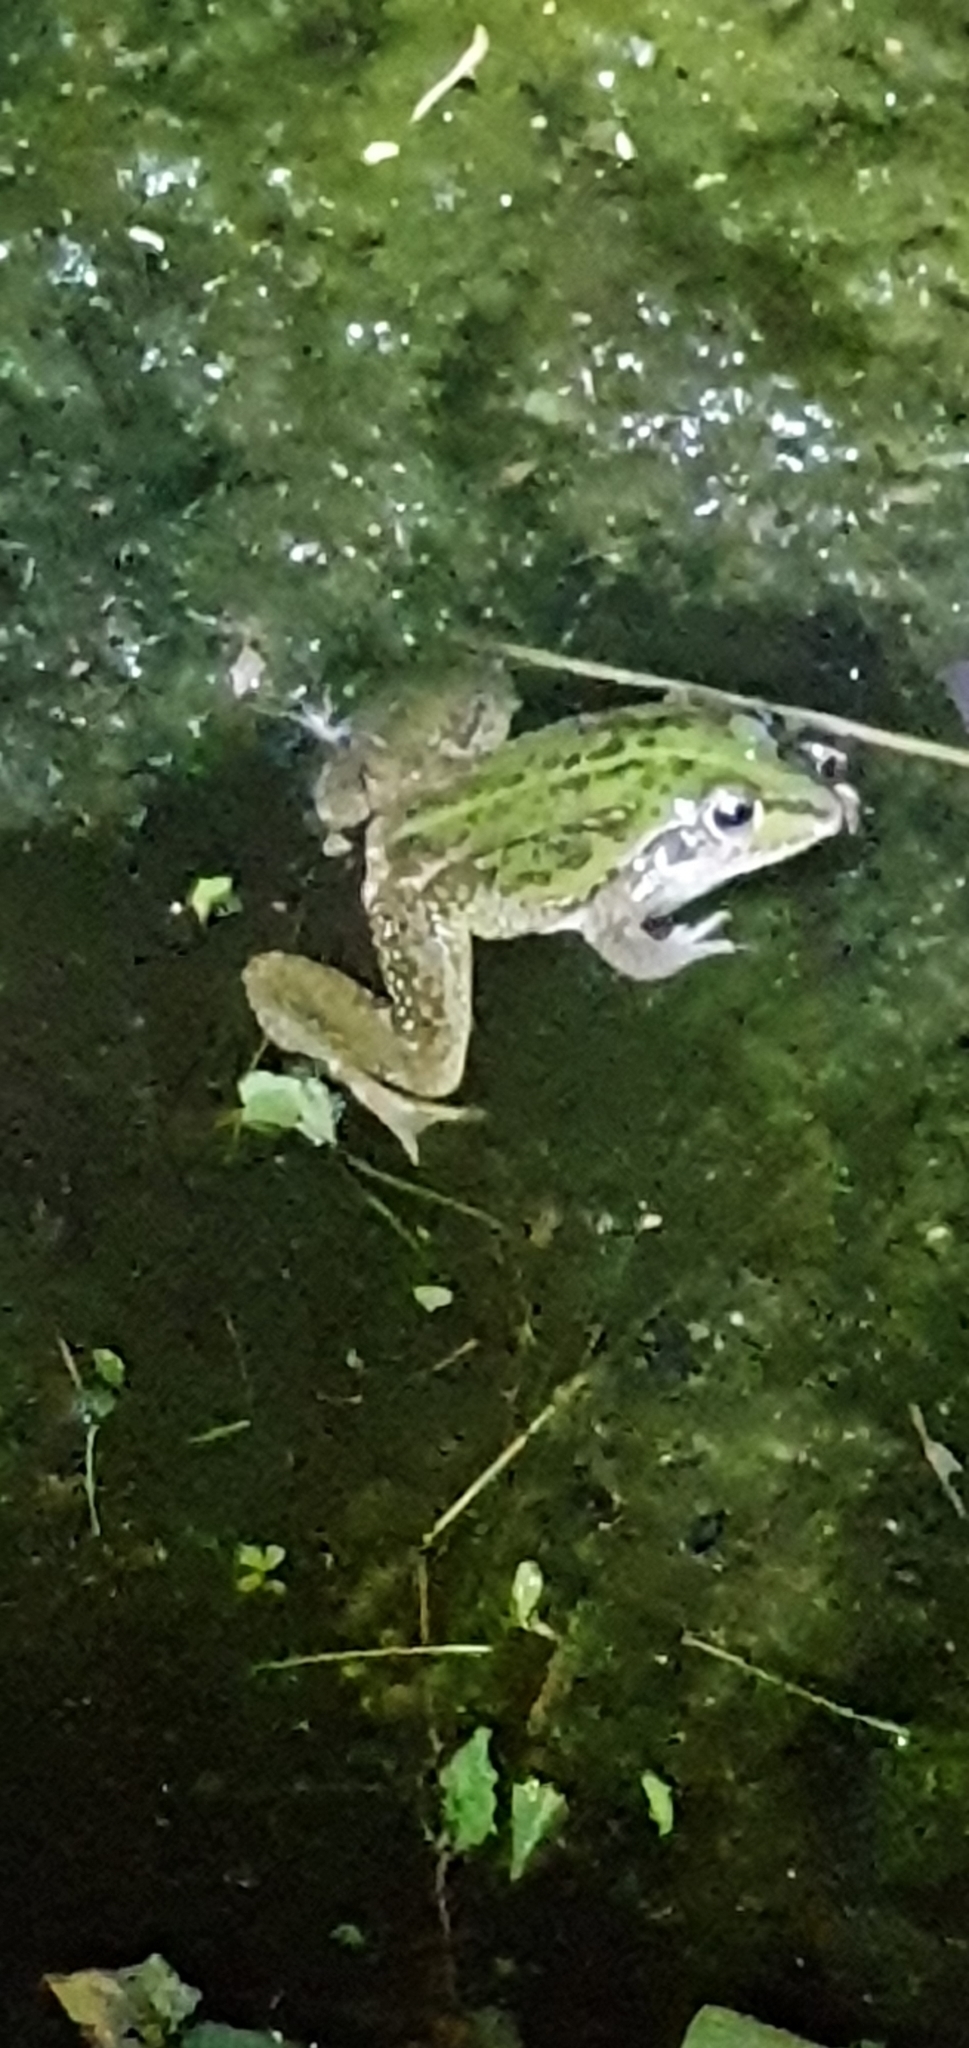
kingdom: Animalia
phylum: Chordata
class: Amphibia
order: Anura
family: Pelodryadidae
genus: Ranoidea
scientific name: Ranoidea alboguttata
